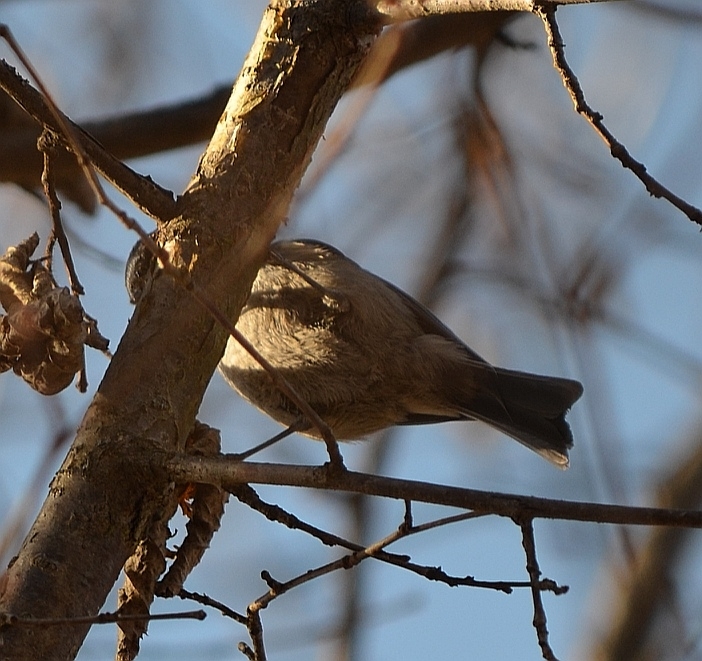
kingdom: Animalia
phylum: Chordata
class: Aves
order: Passeriformes
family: Paridae
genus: Periparus
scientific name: Periparus ater
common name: Coal tit
